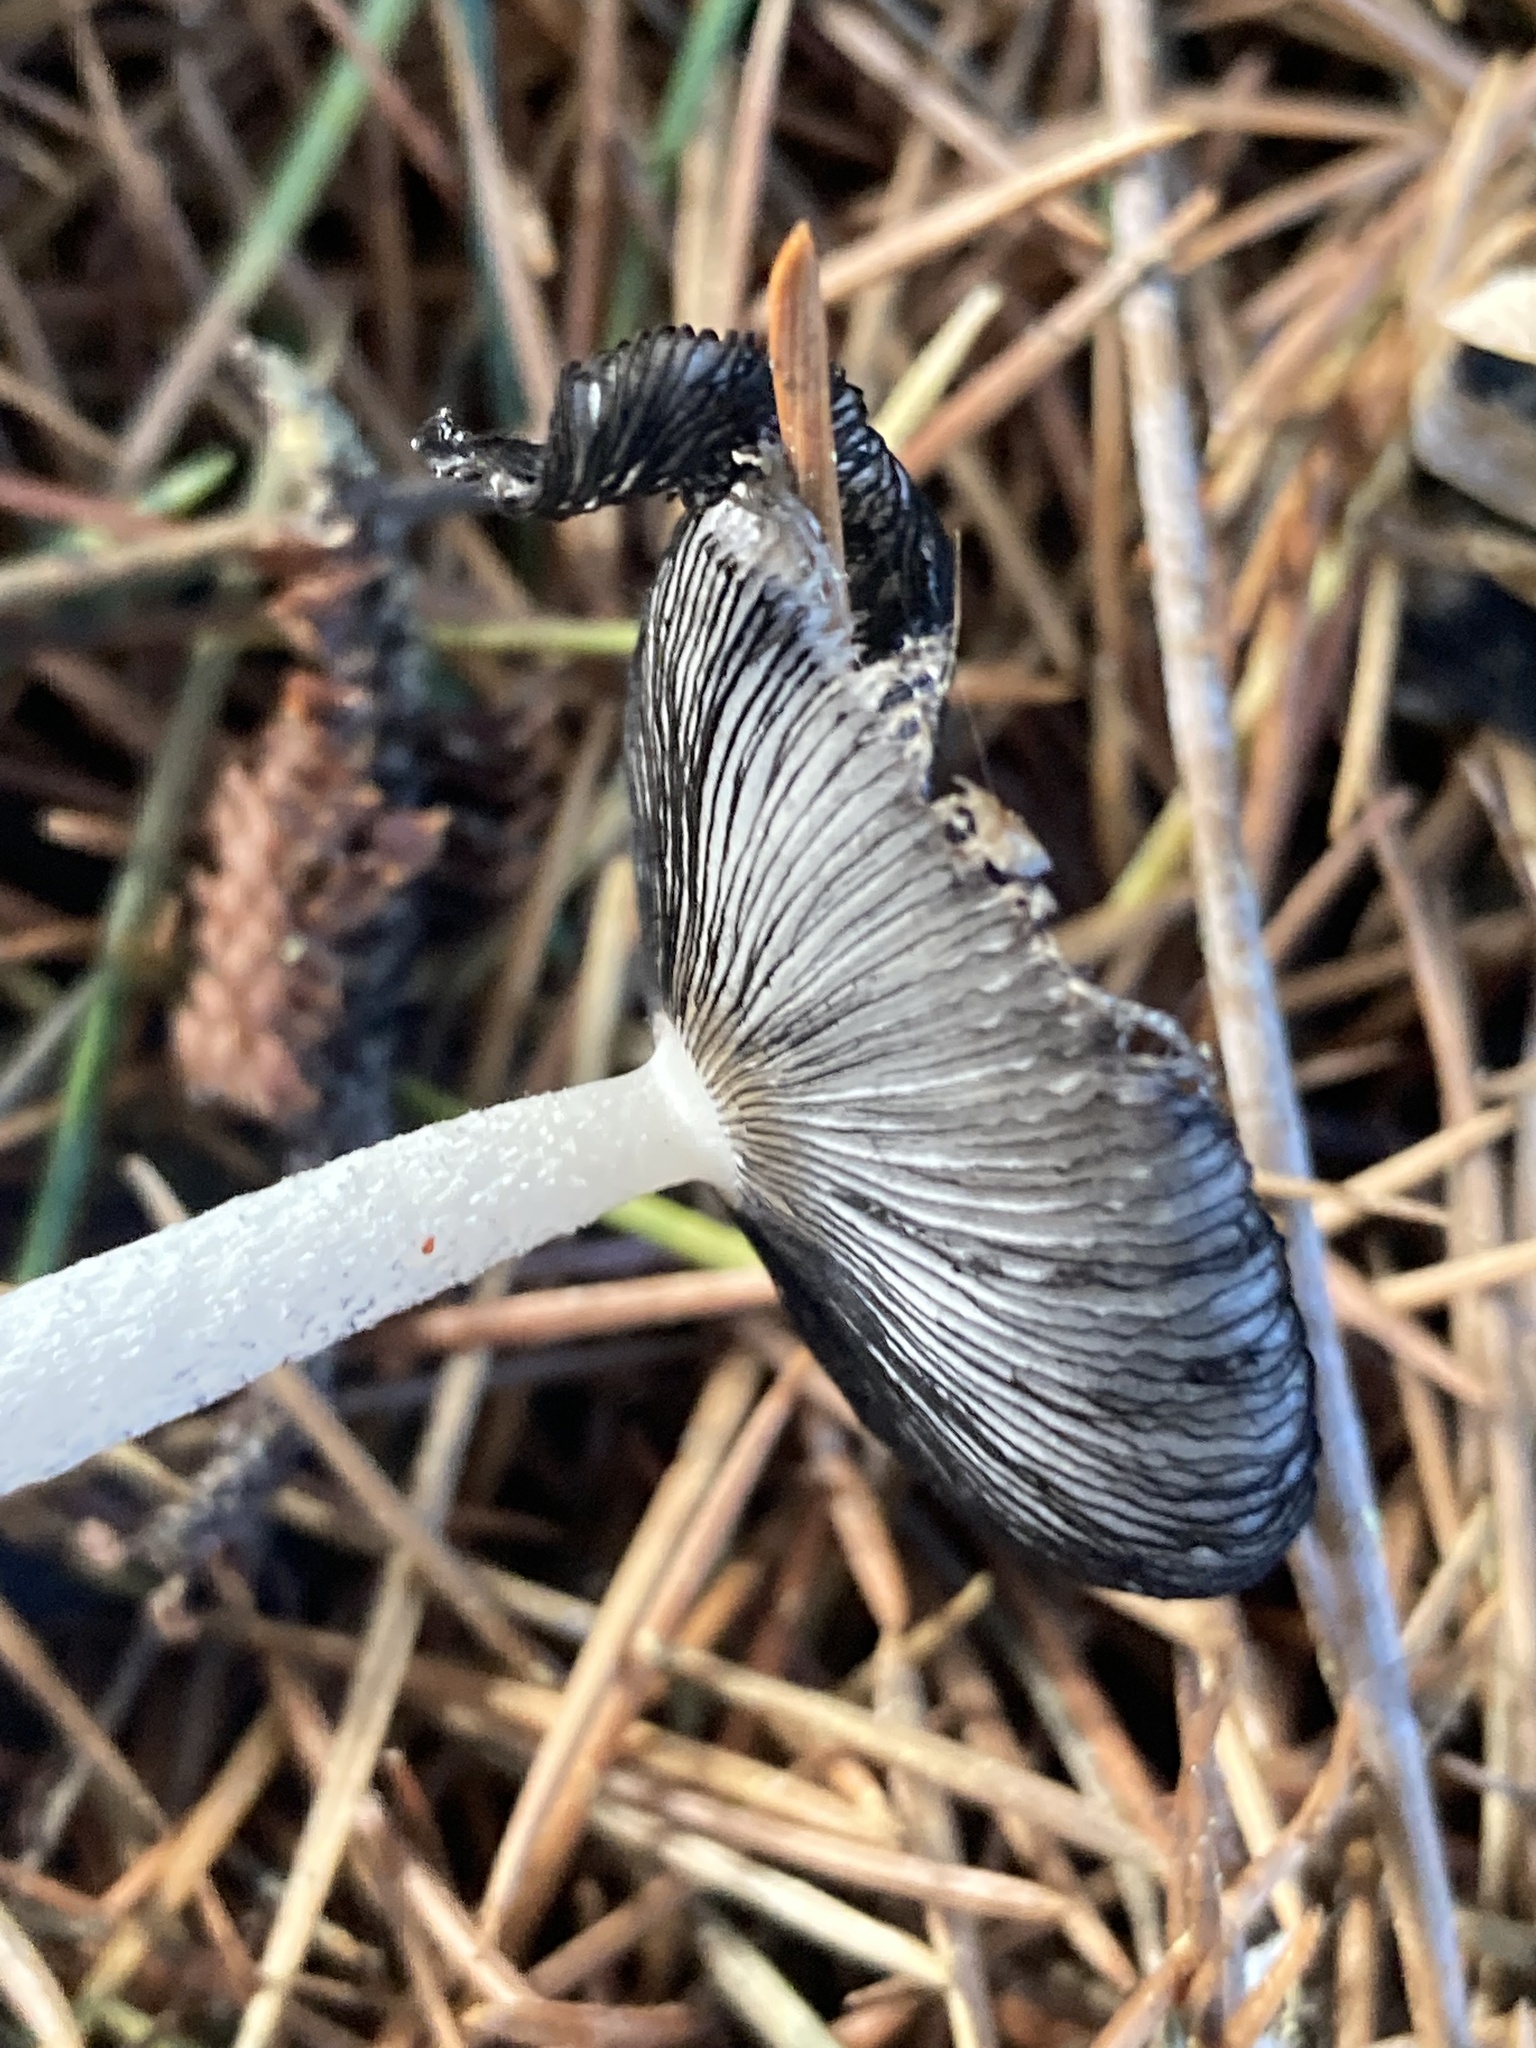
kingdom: Fungi
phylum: Basidiomycota
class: Agaricomycetes
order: Agaricales
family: Psathyrellaceae
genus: Coprinopsis
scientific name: Coprinopsis lagopus
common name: Hare'sfoot inkcap
